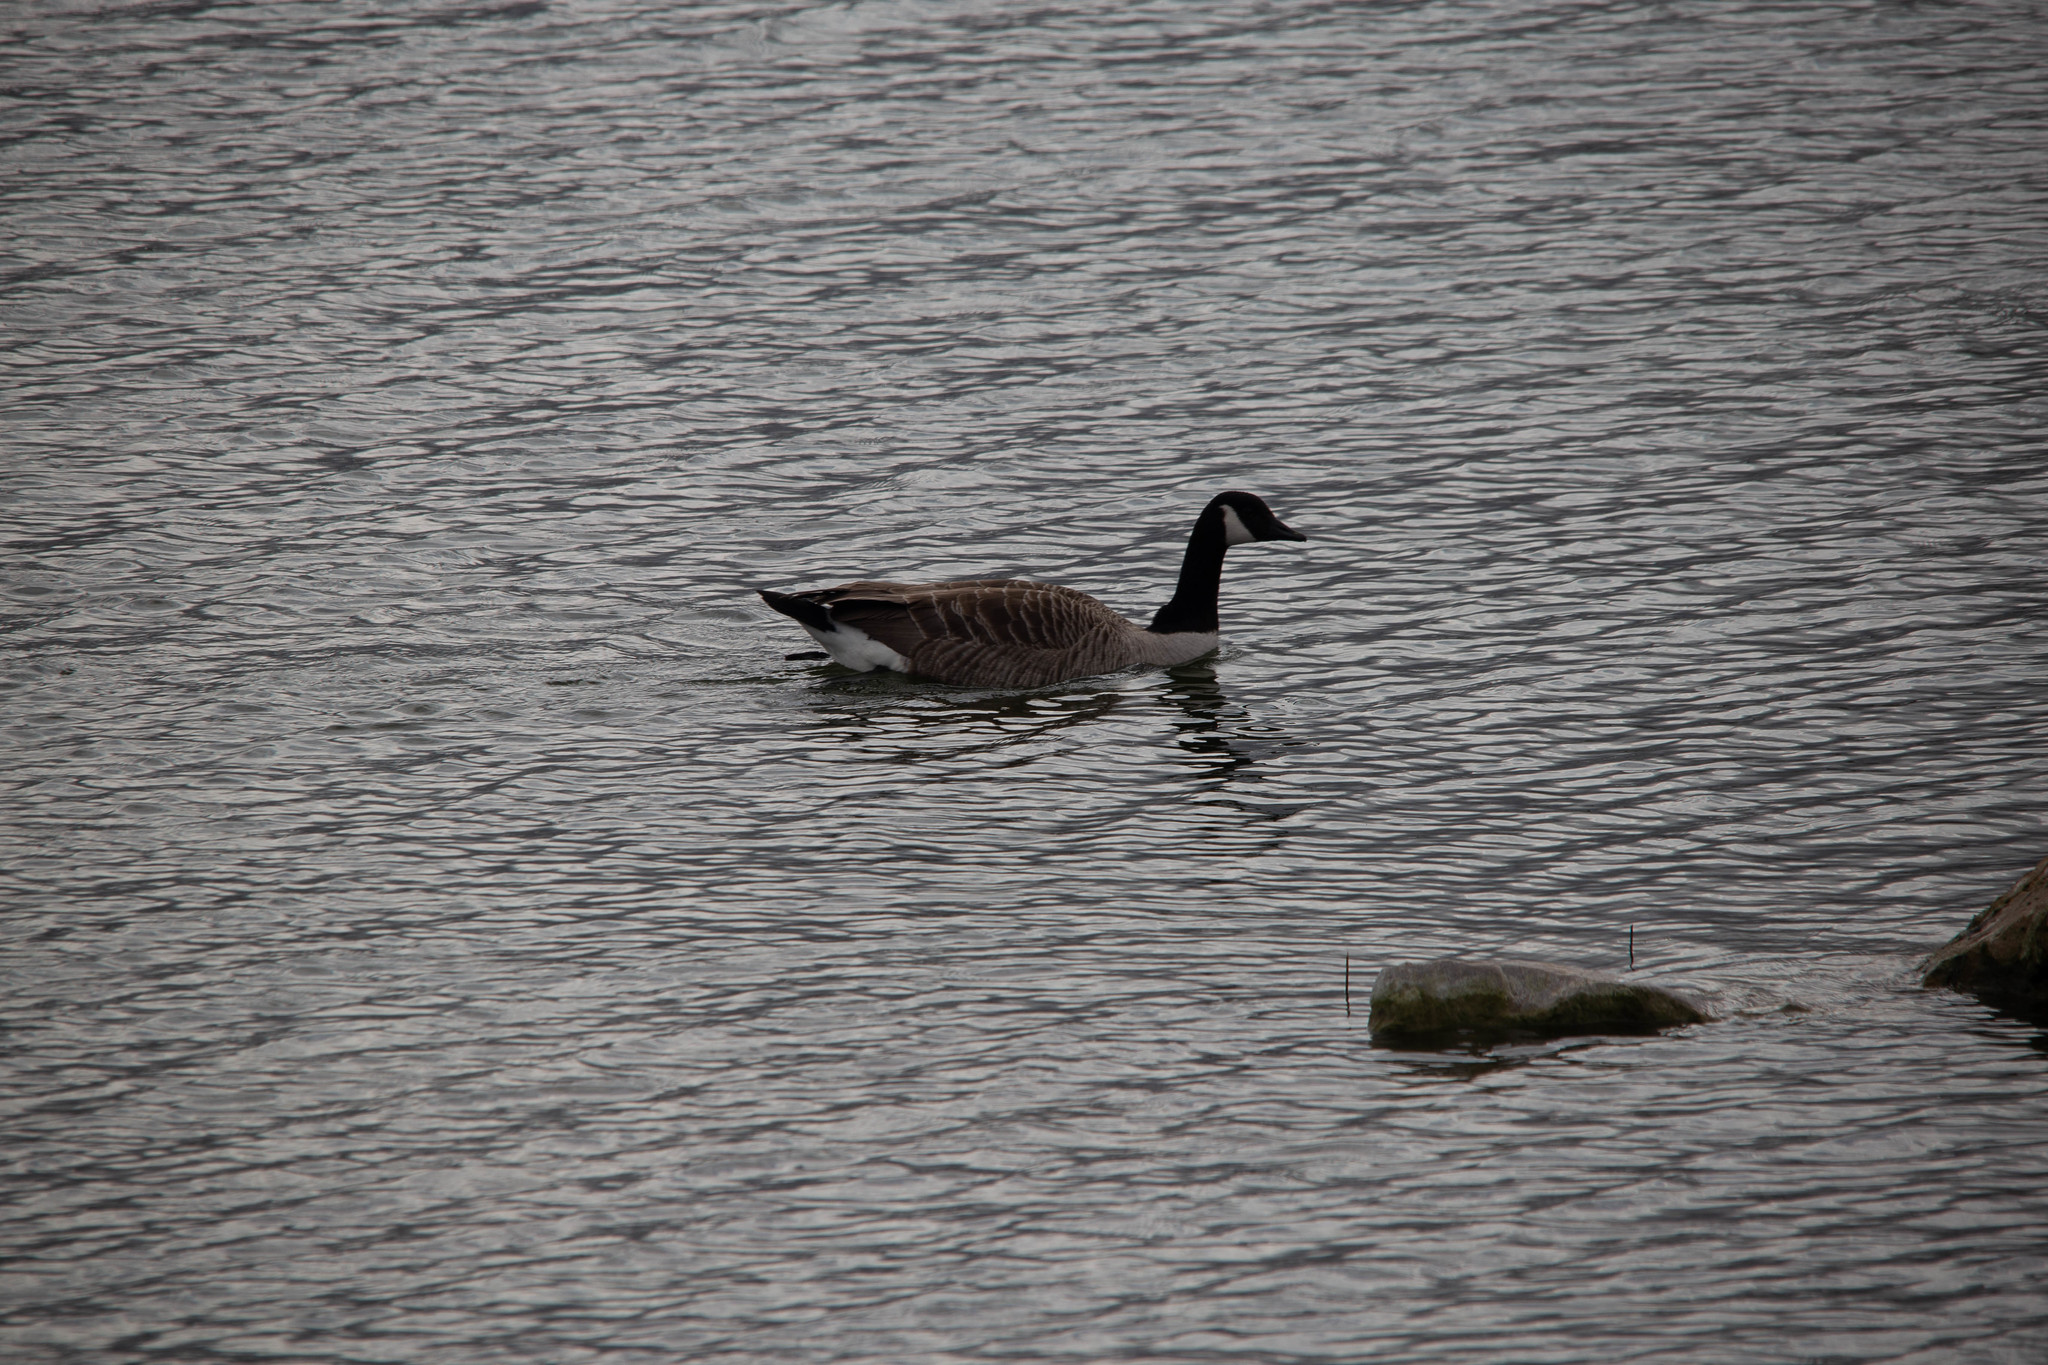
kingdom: Animalia
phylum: Chordata
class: Aves
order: Anseriformes
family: Anatidae
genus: Branta
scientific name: Branta canadensis
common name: Canada goose
